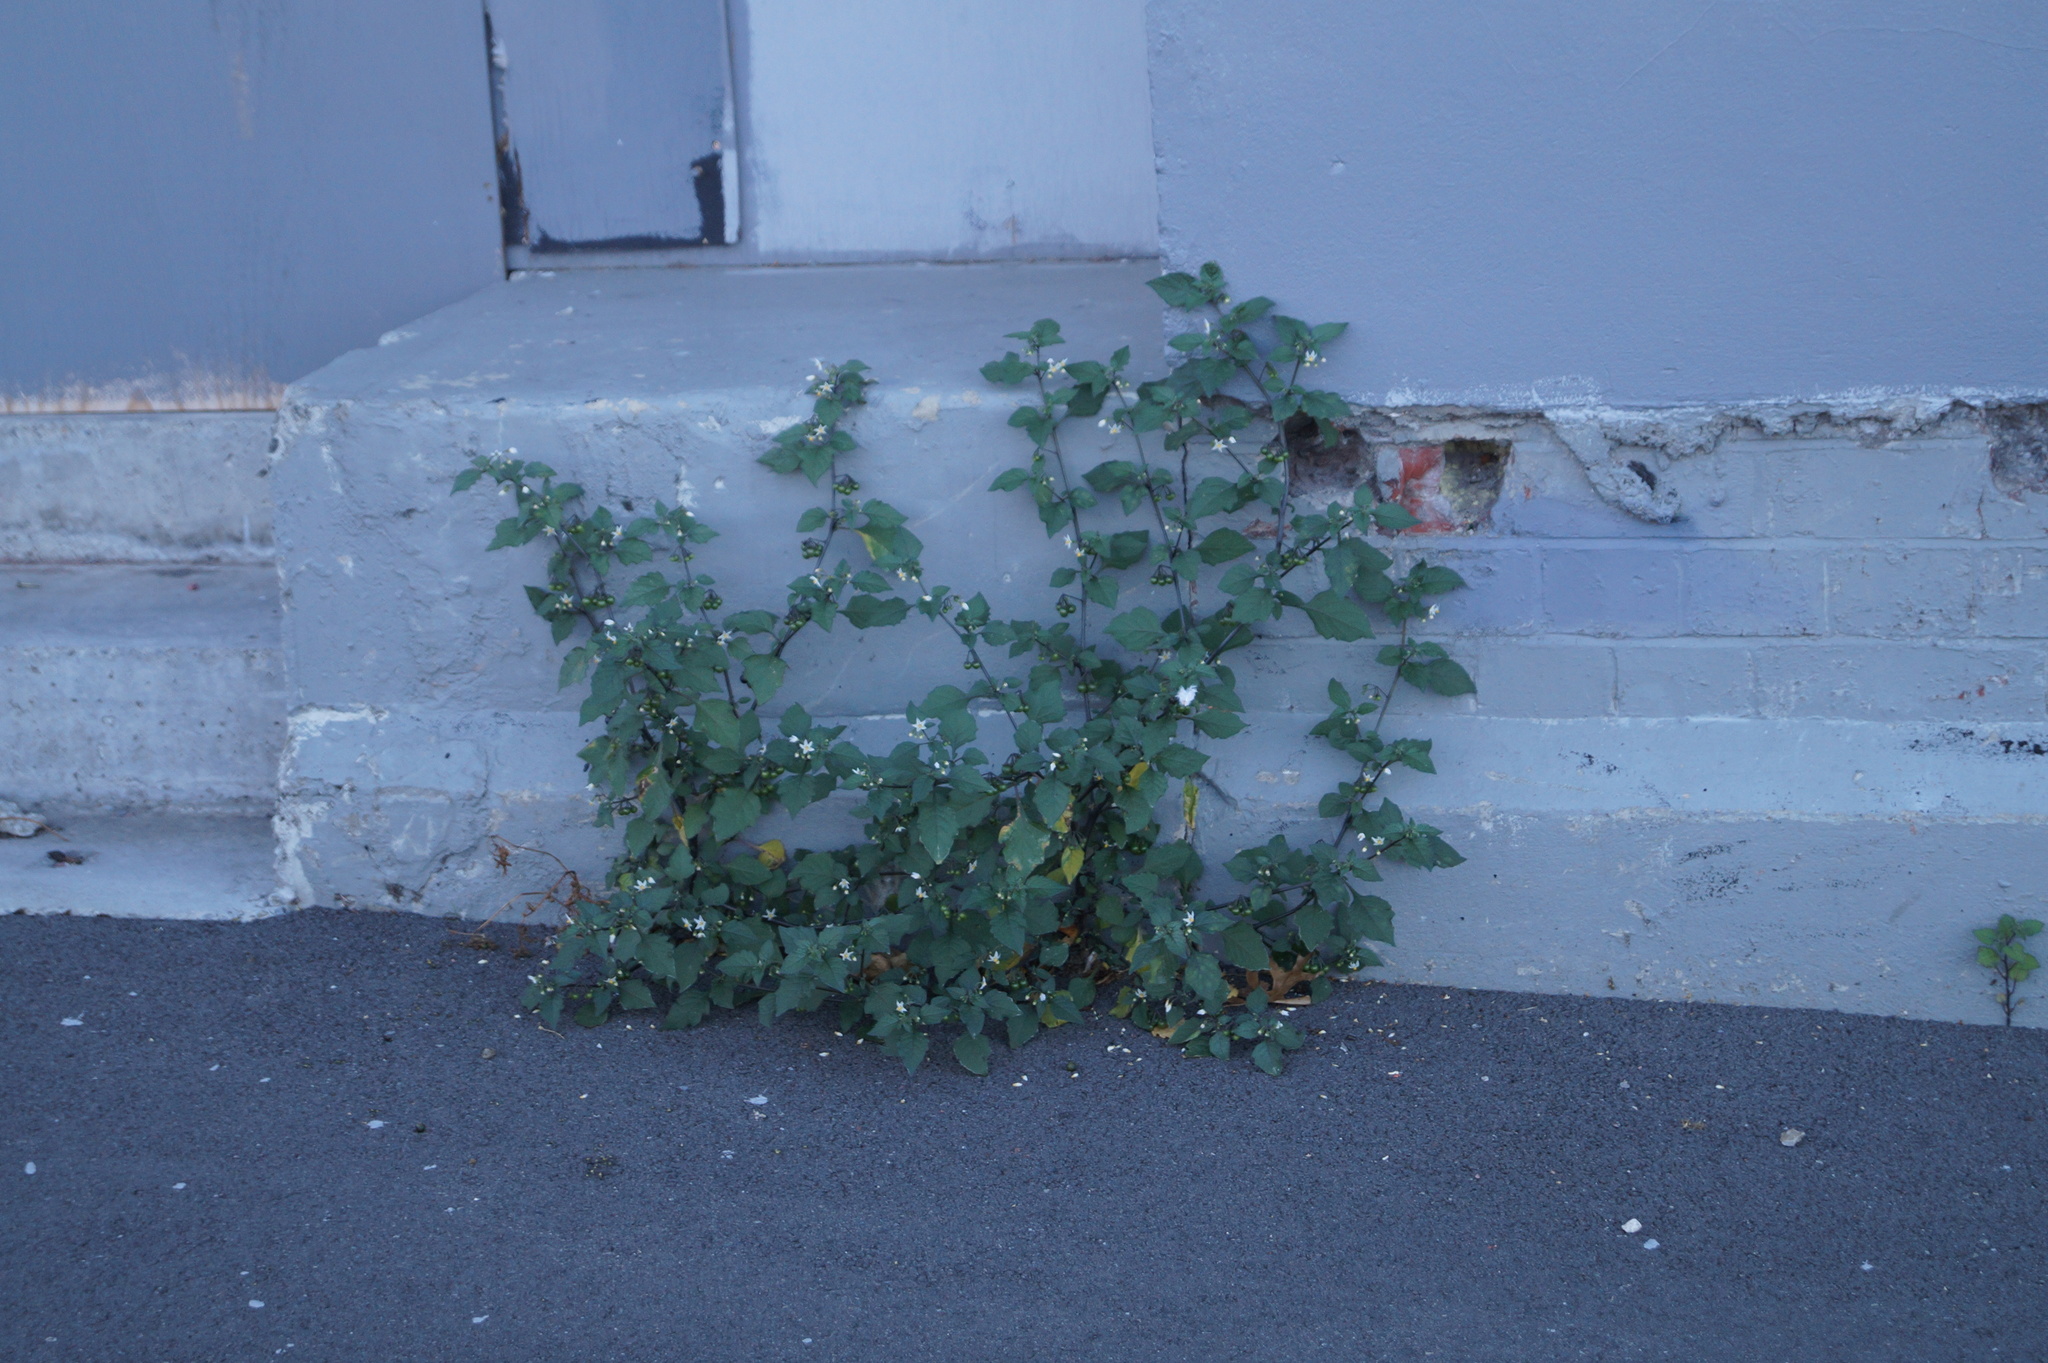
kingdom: Plantae
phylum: Tracheophyta
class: Magnoliopsida
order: Solanales
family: Solanaceae
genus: Solanum
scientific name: Solanum nigrum
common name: Black nightshade
